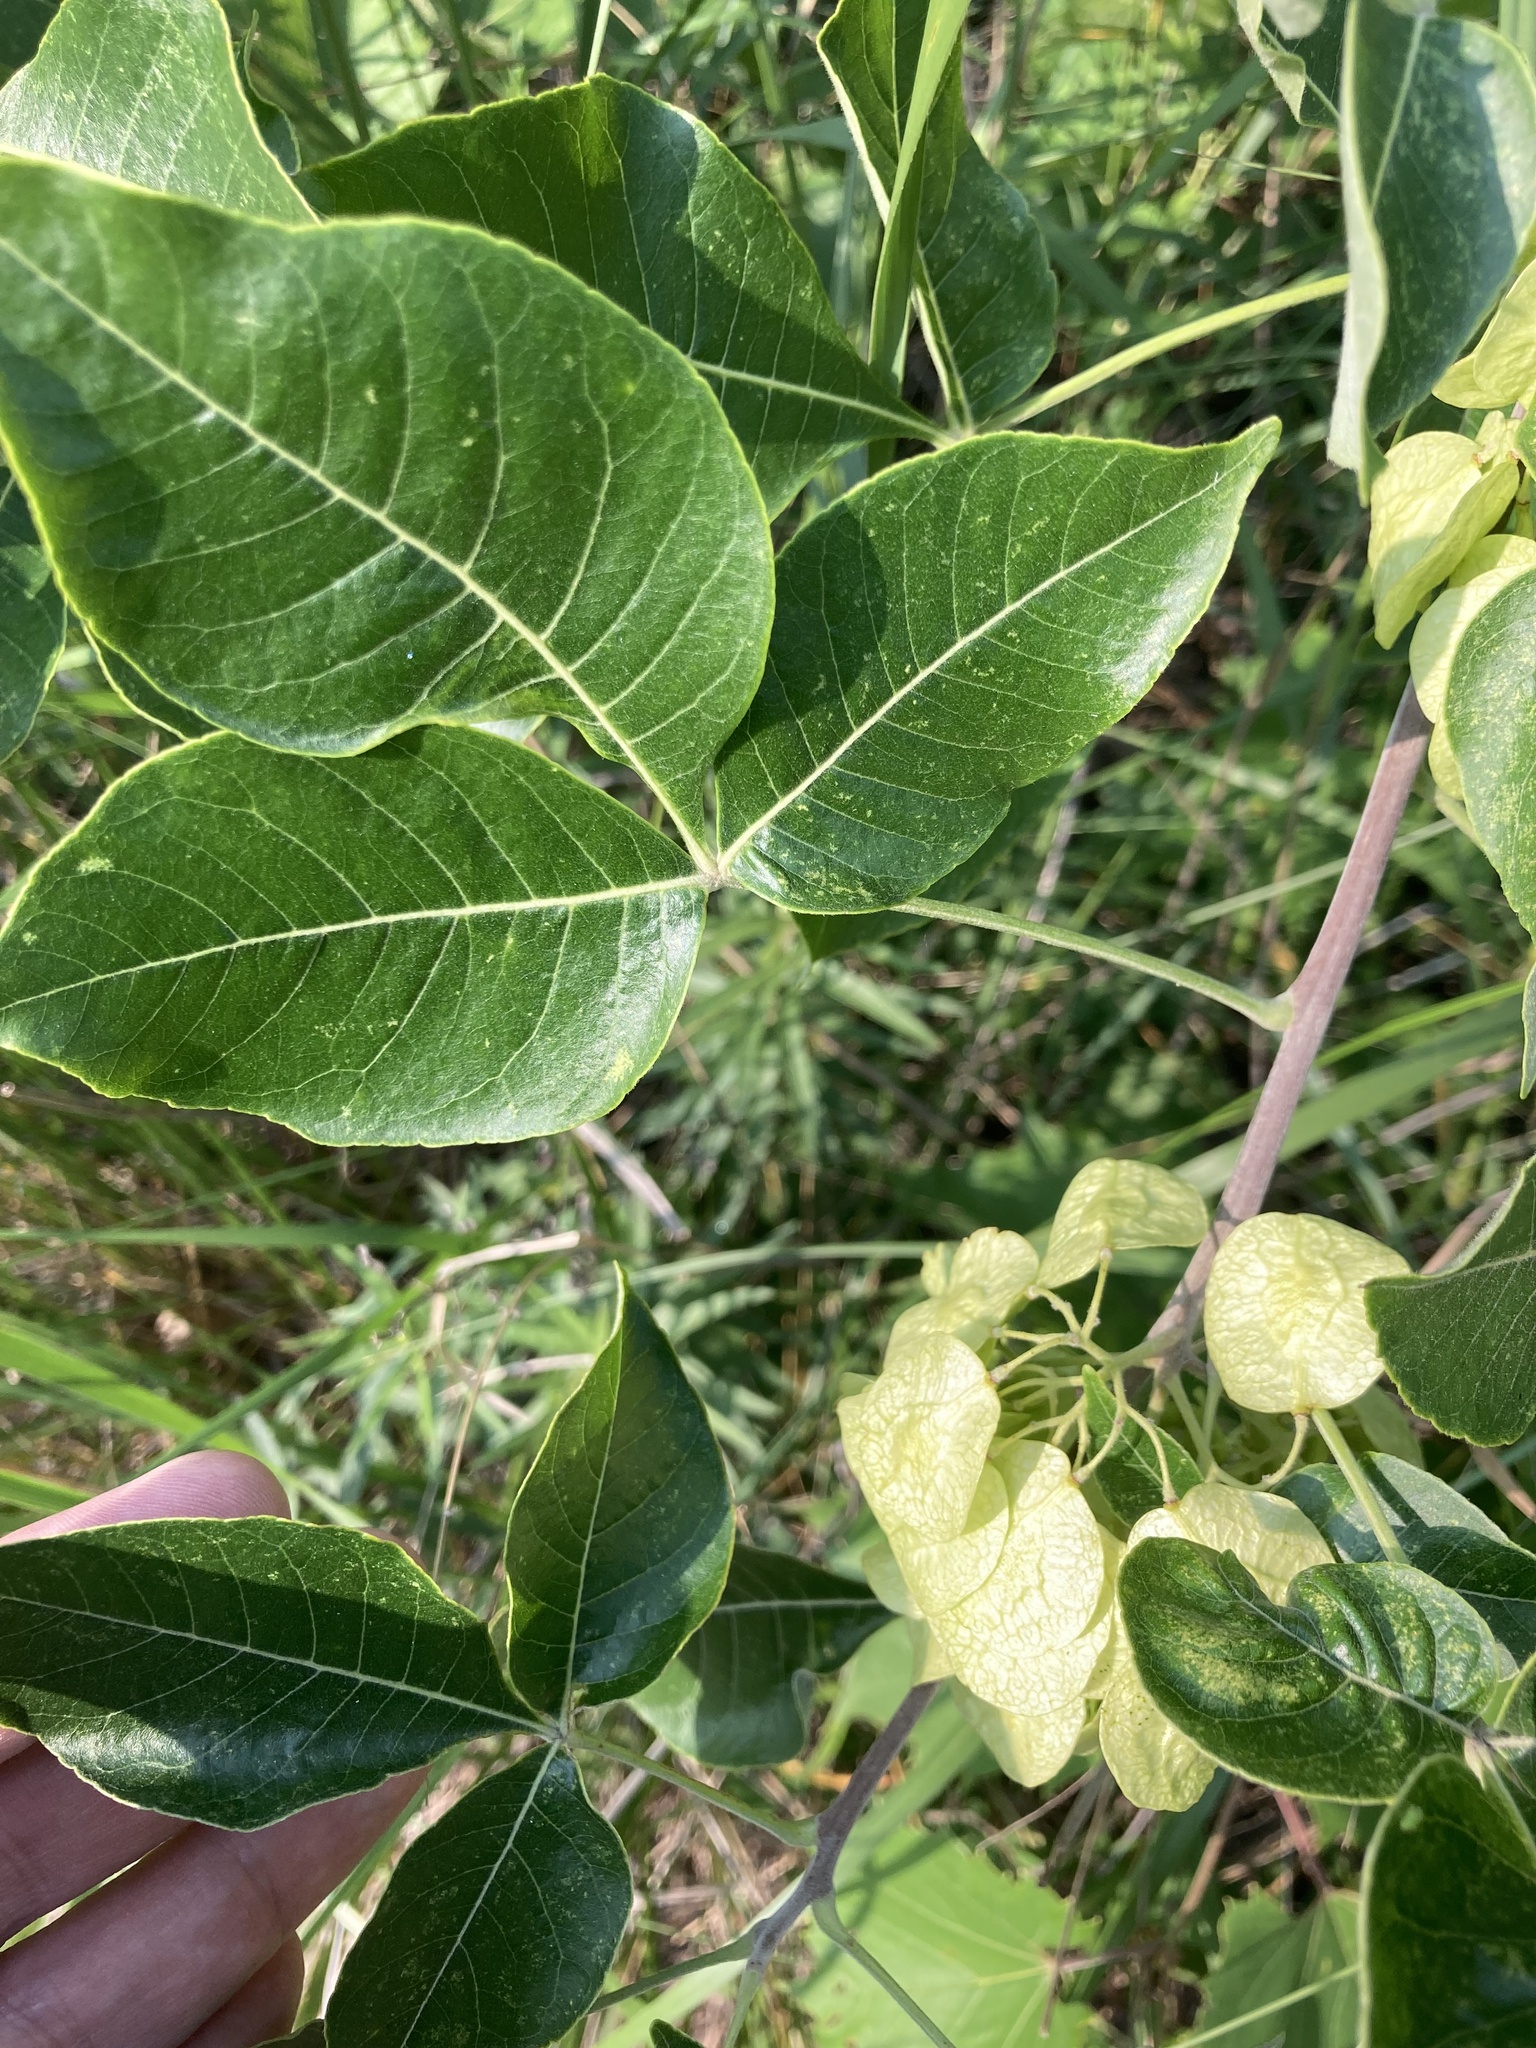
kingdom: Plantae
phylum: Tracheophyta
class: Magnoliopsida
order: Sapindales
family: Rutaceae
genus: Ptelea
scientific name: Ptelea trifoliata
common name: Common hop-tree
